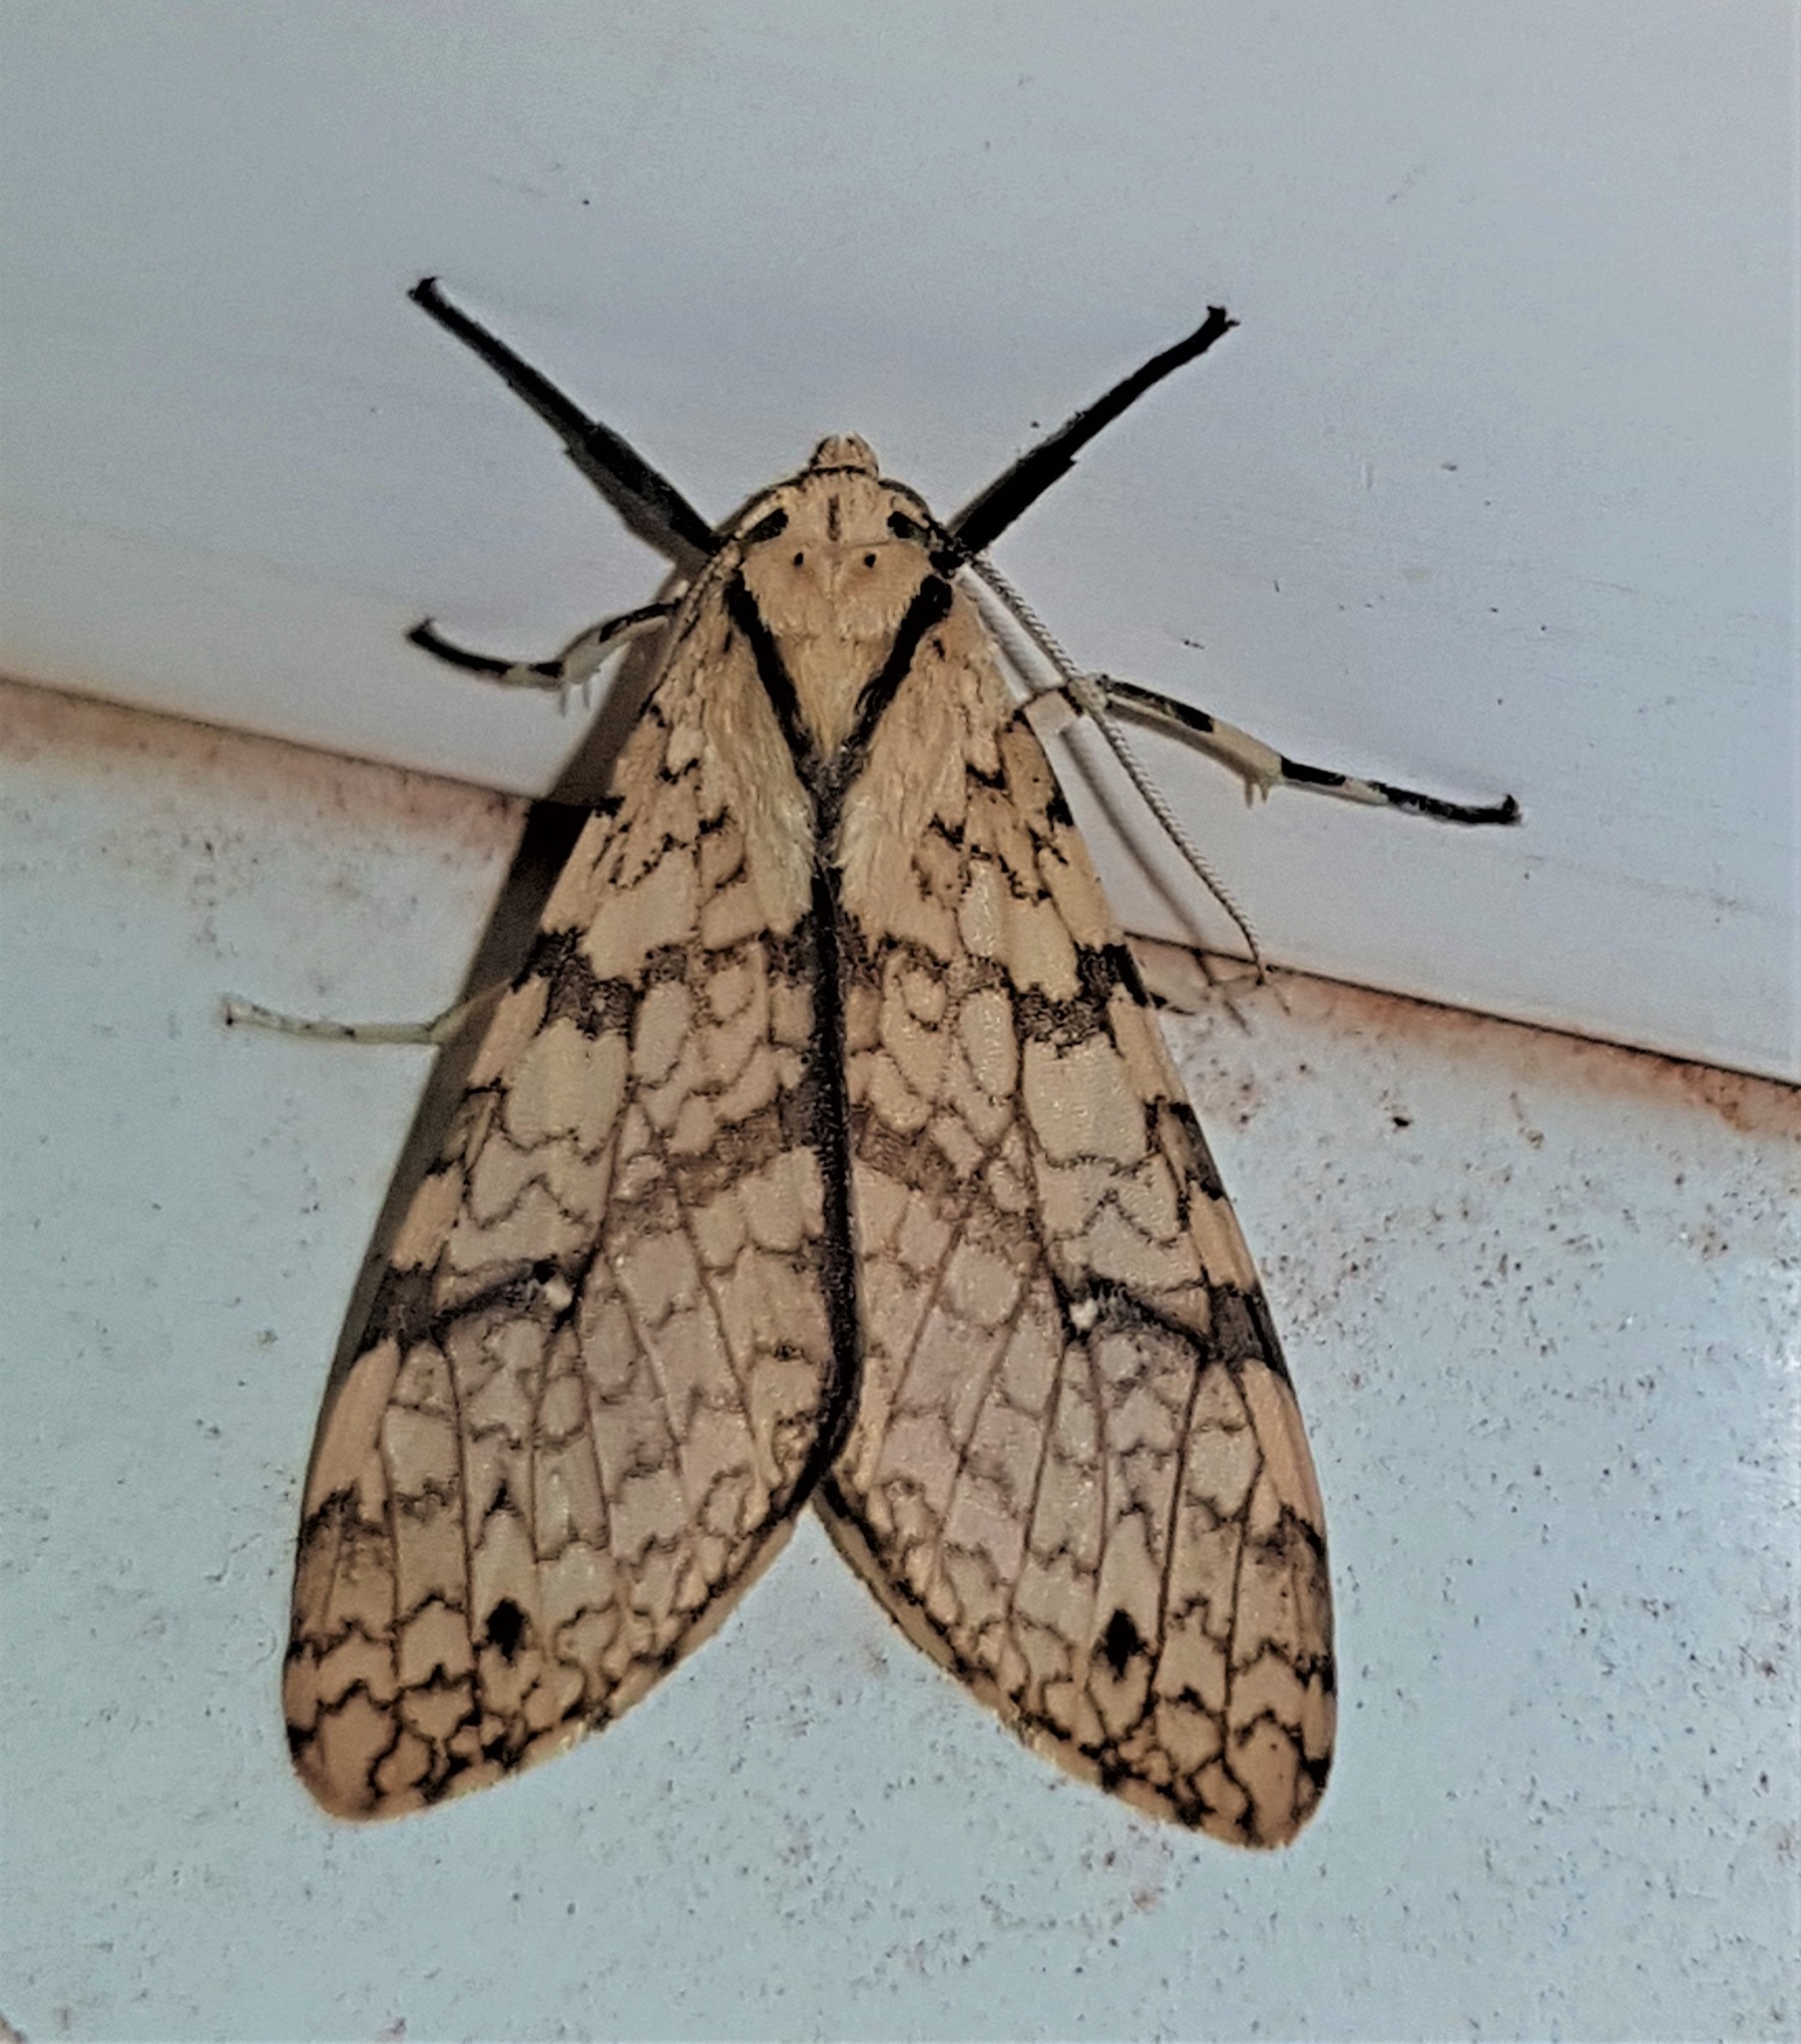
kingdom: Animalia
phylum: Arthropoda
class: Insecta
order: Lepidoptera
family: Erebidae
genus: Lophocampa
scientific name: Lophocampa seruba
